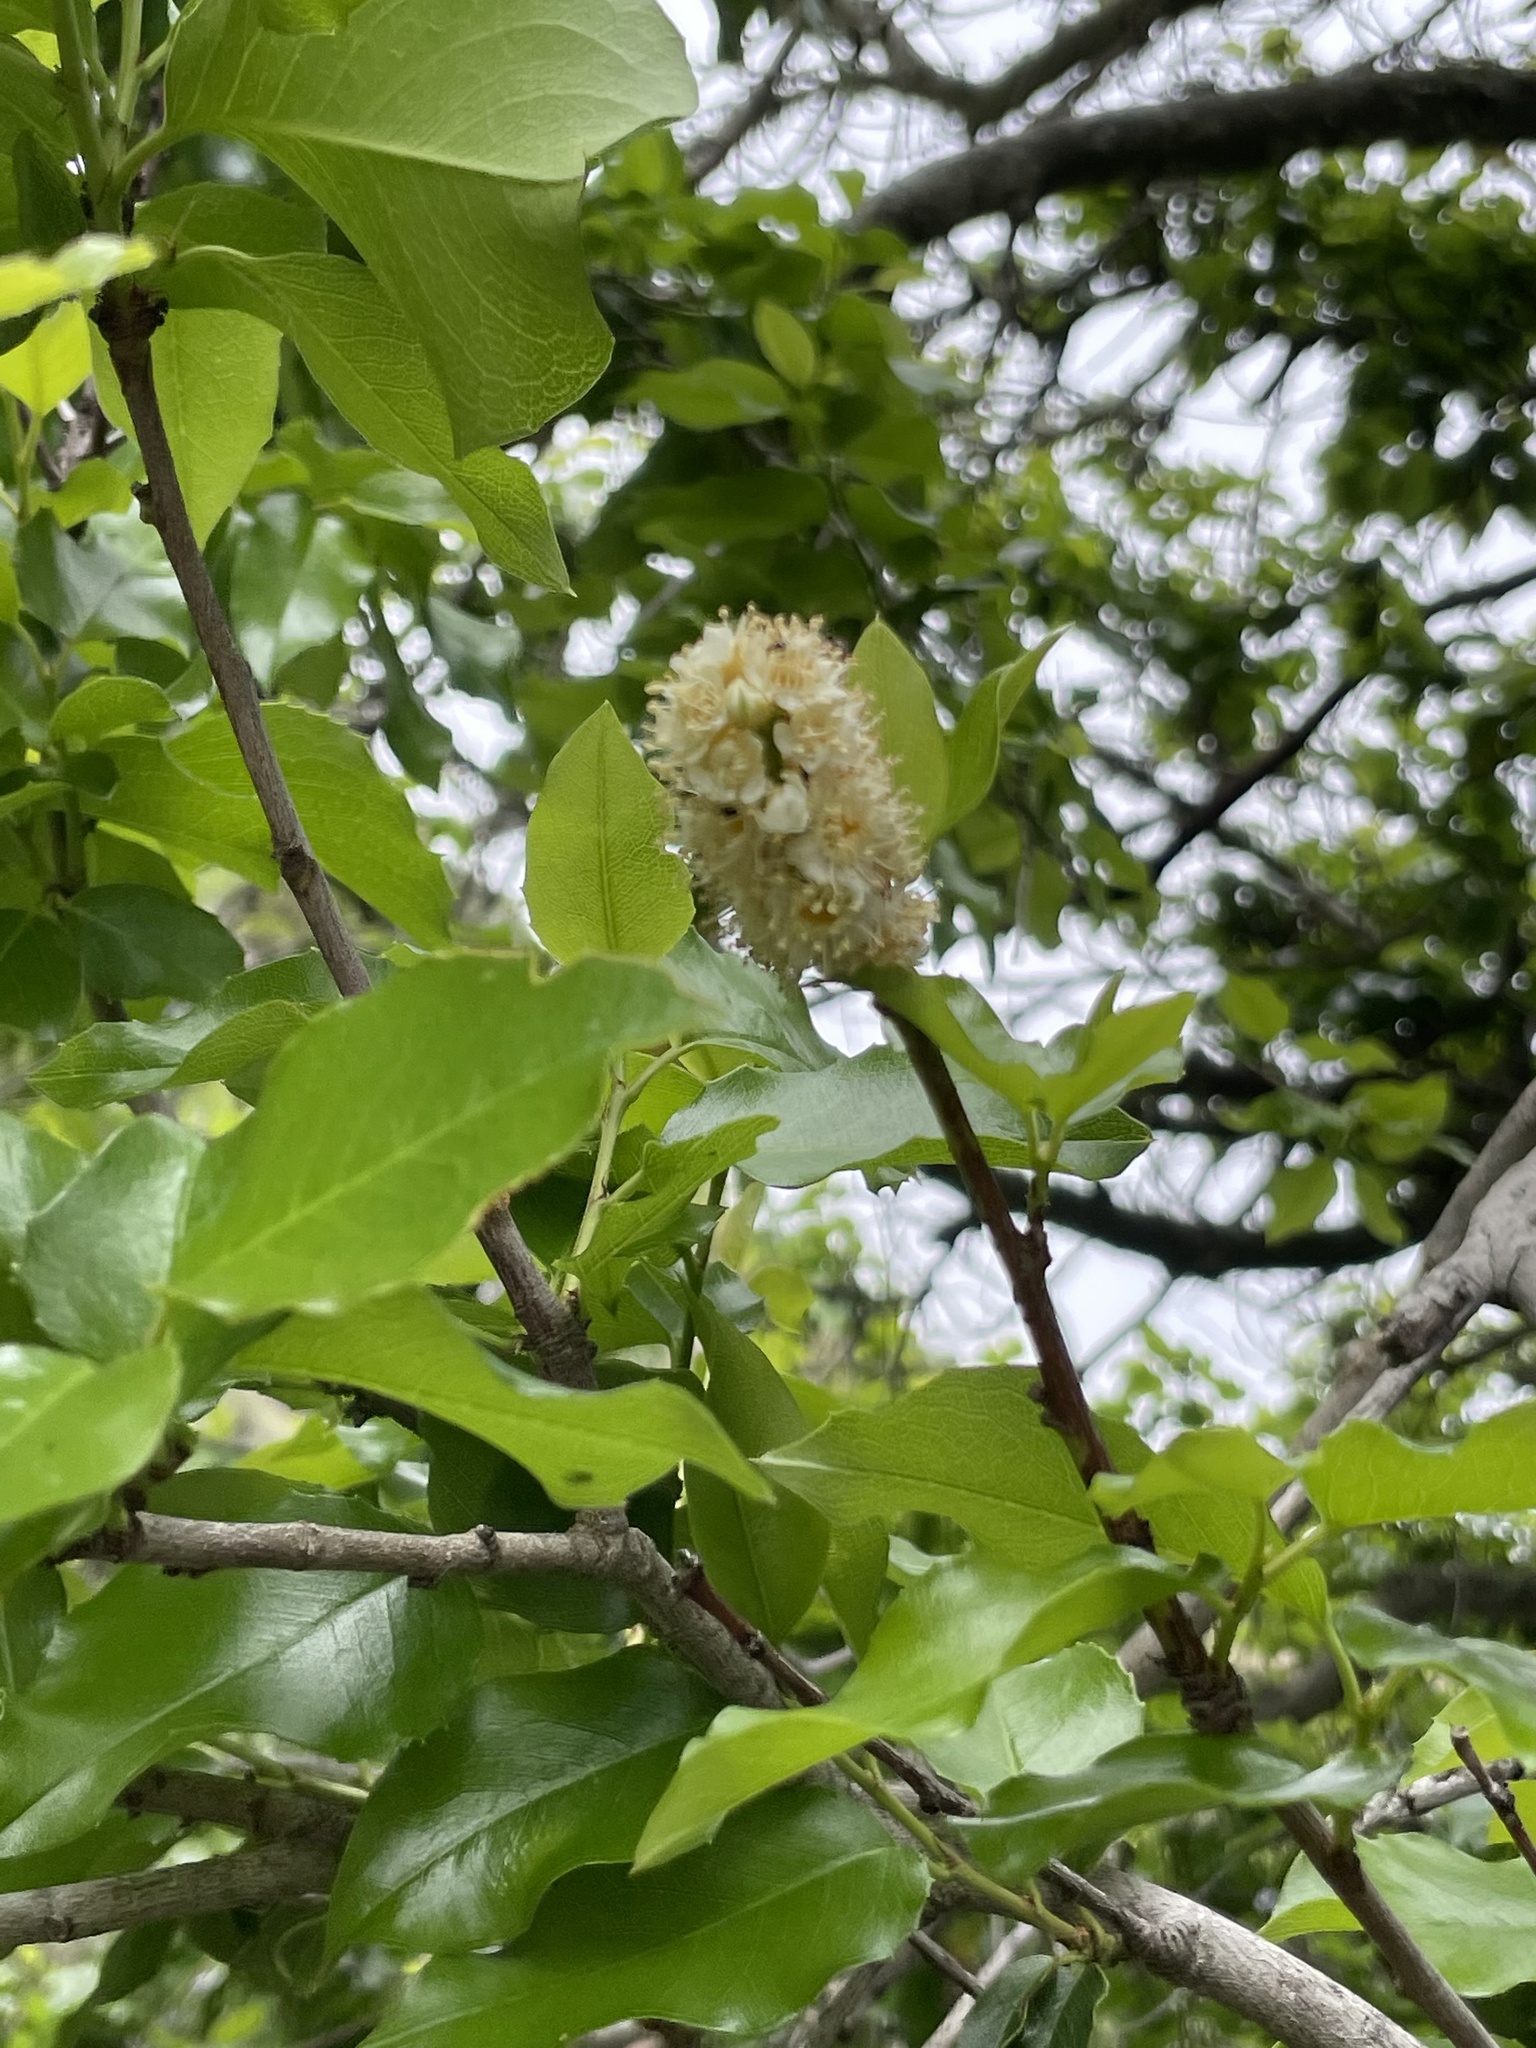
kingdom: Plantae
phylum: Tracheophyta
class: Magnoliopsida
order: Rosales
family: Rosaceae
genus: Prunus
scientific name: Prunus ilicifolia
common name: Hollyleaf cherry
